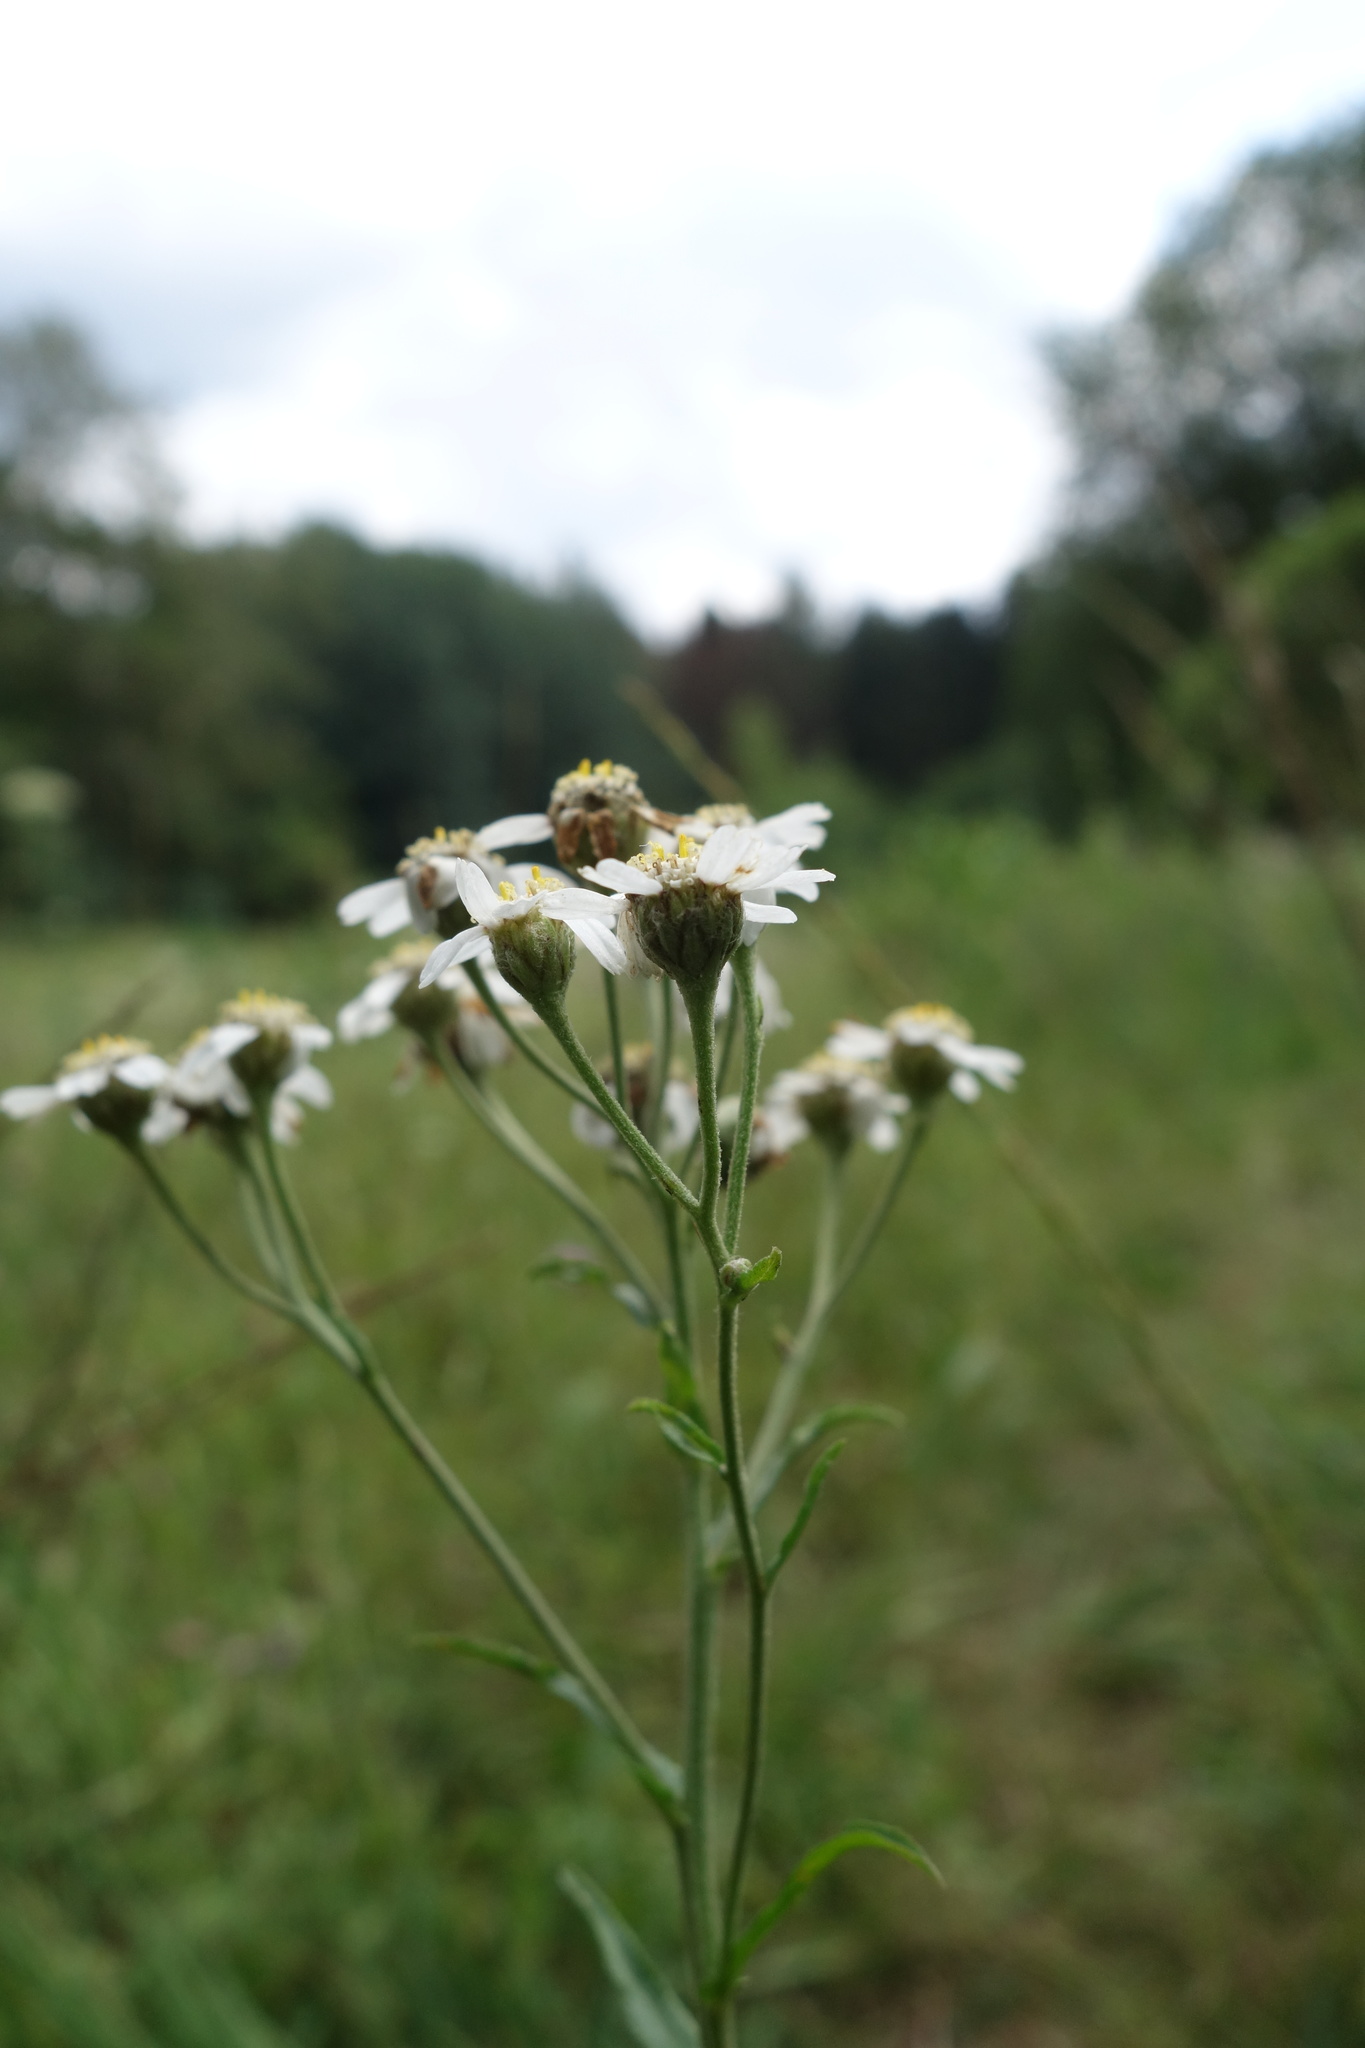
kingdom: Plantae
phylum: Tracheophyta
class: Magnoliopsida
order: Asterales
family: Asteraceae
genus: Achillea
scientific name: Achillea ptarmica
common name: Sneezeweed
